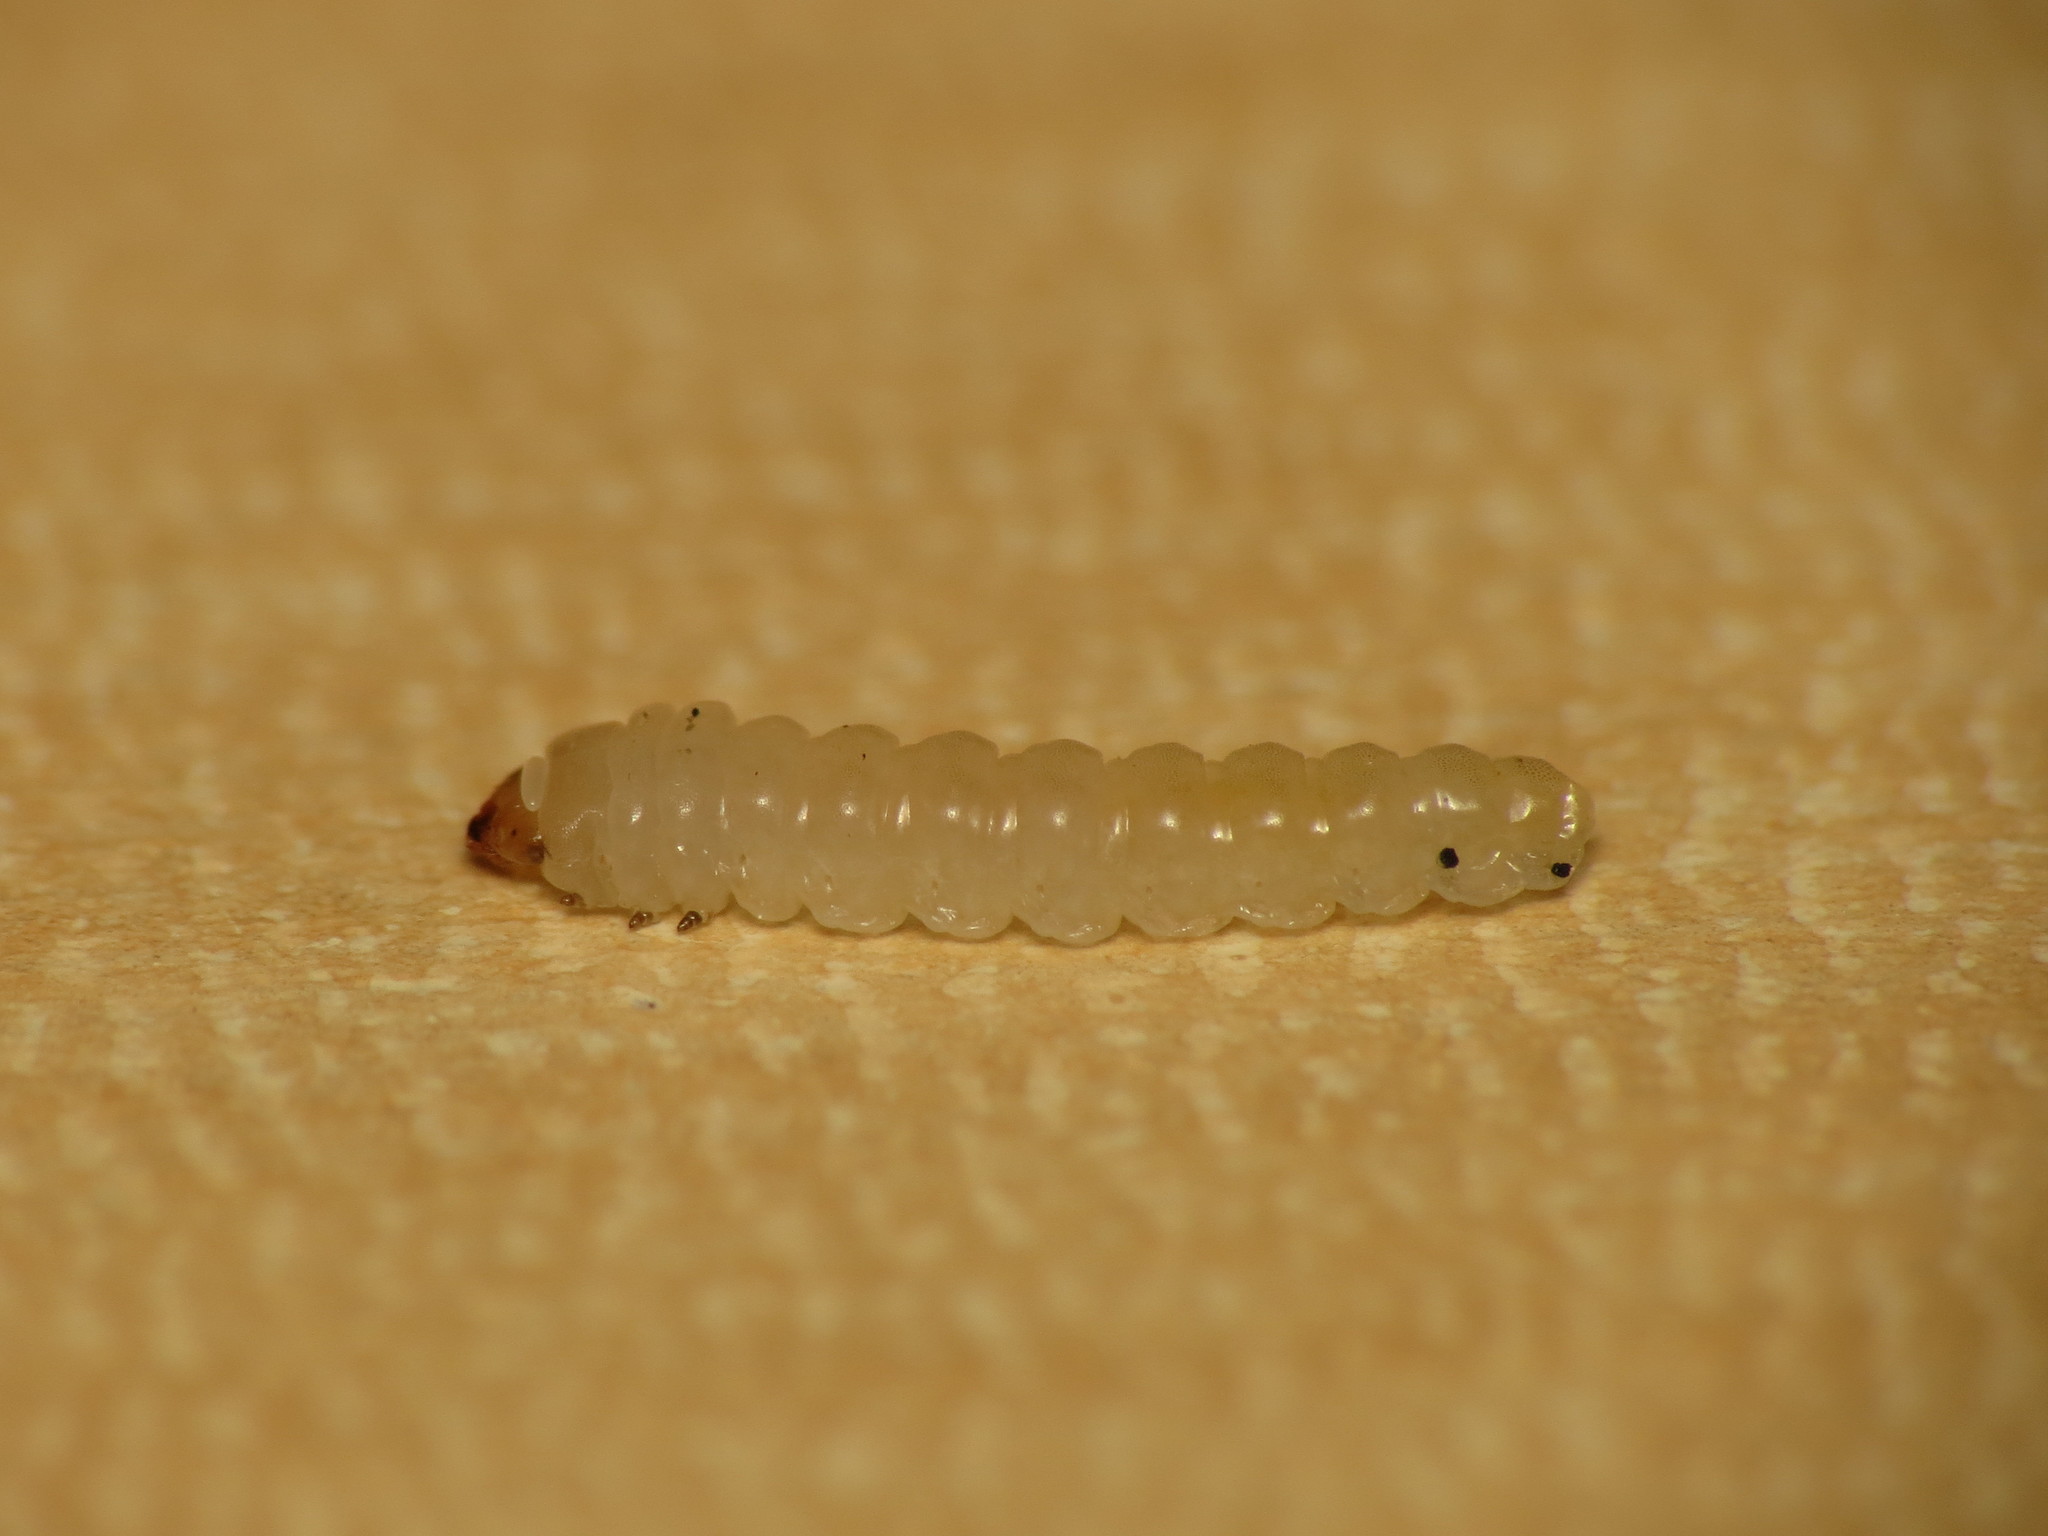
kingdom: Animalia
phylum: Arthropoda
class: Insecta
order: Hymenoptera
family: Tenthredinidae
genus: Fenusa
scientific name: Fenusa ulmi
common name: Elm leafminer
